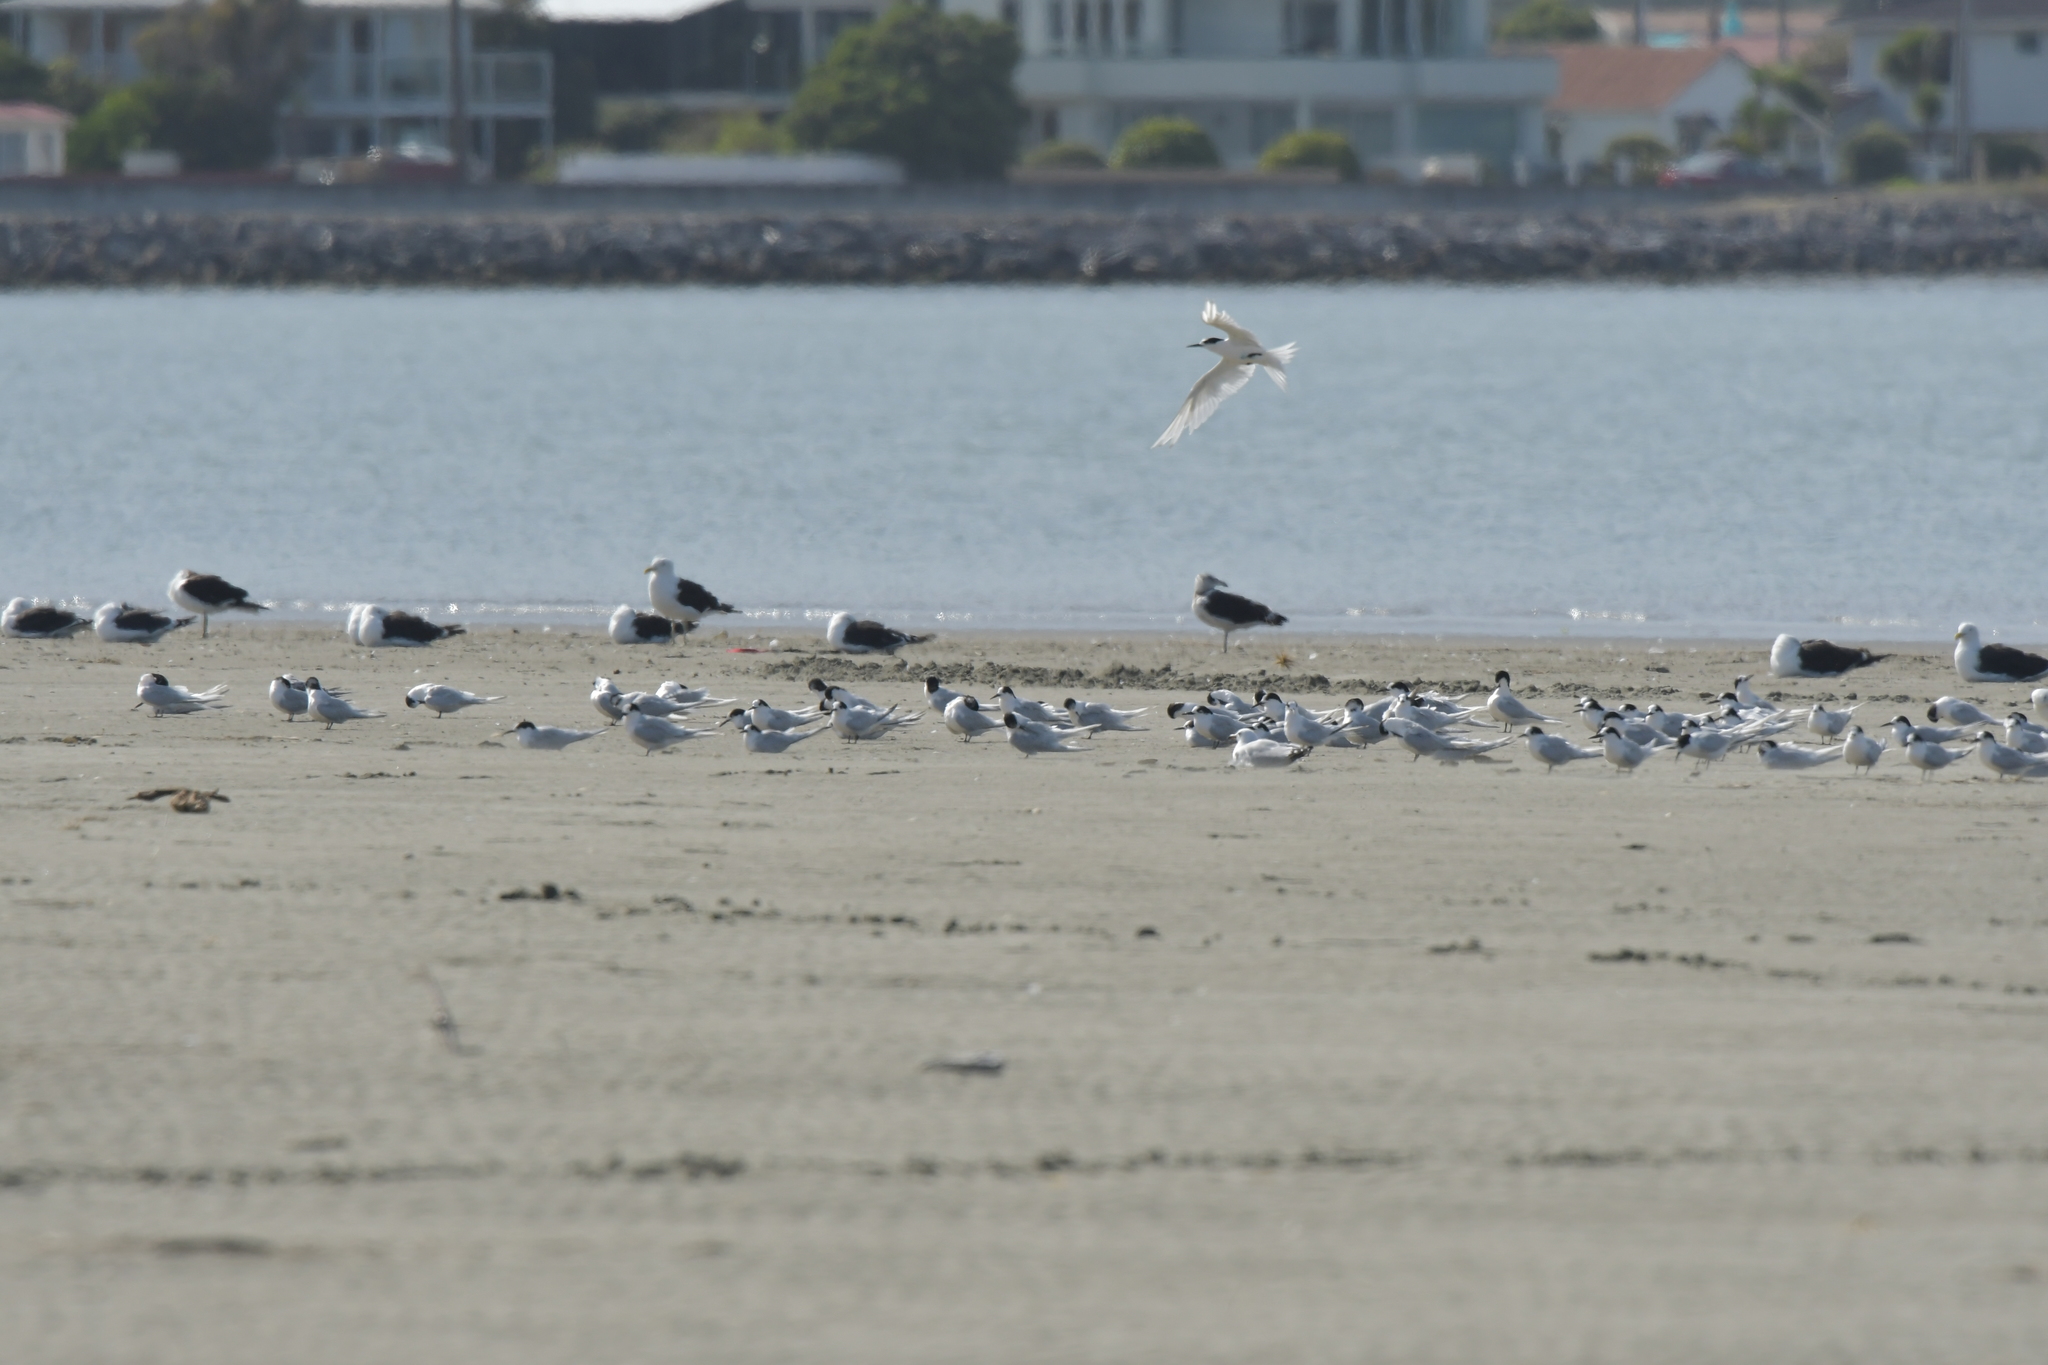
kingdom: Animalia
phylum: Chordata
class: Aves
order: Charadriiformes
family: Laridae
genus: Sterna
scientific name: Sterna striata
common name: White-fronted tern
